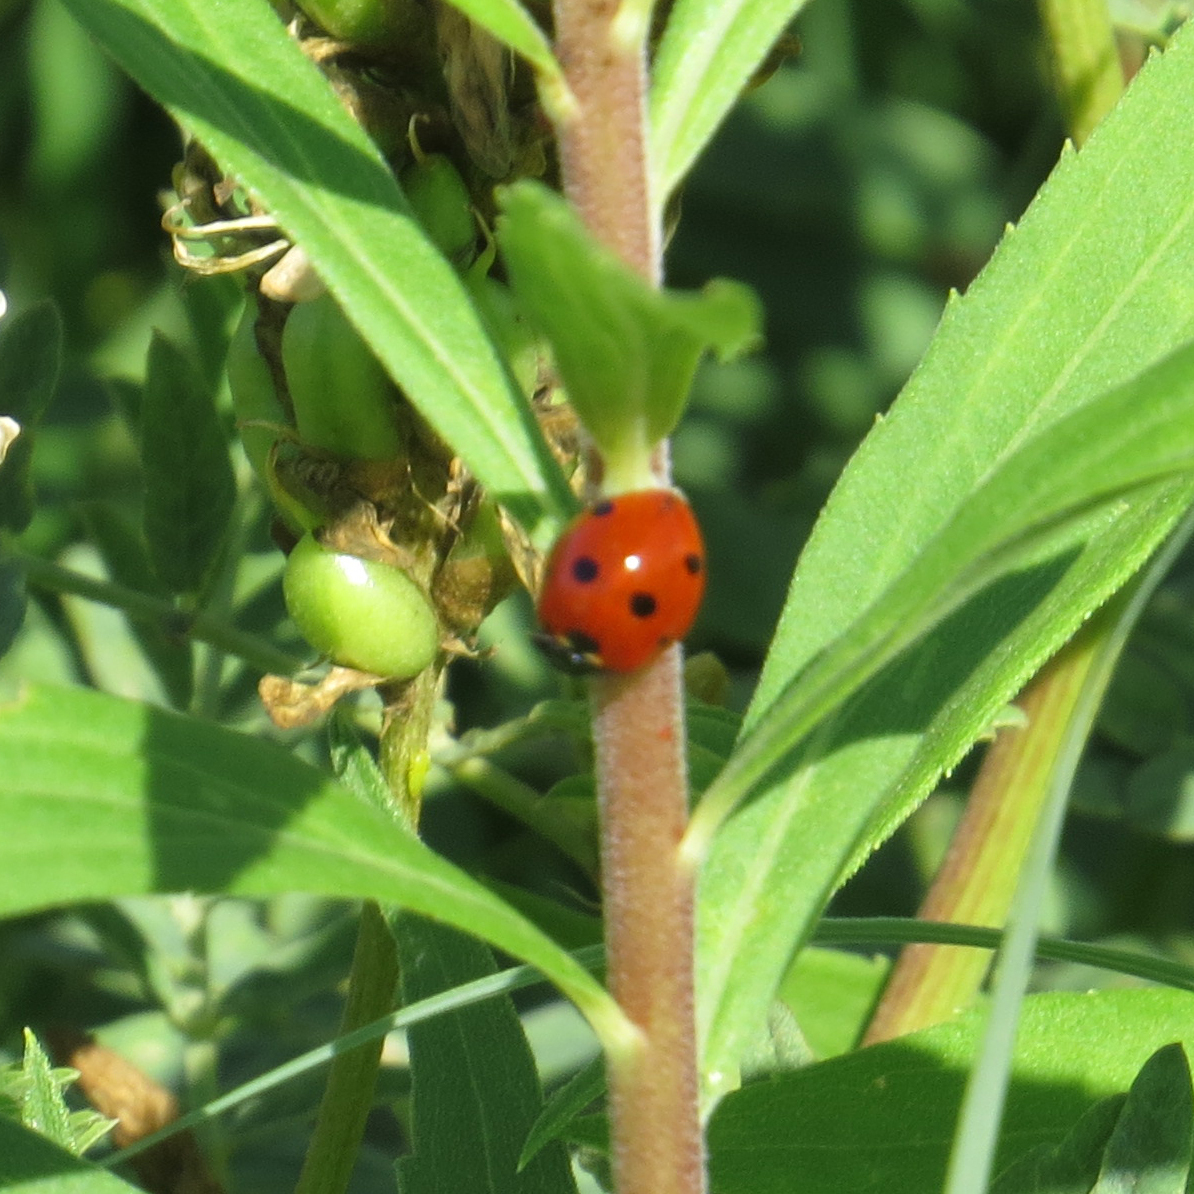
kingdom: Animalia
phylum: Arthropoda
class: Insecta
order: Coleoptera
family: Coccinellidae
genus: Coccinella
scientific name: Coccinella septempunctata
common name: Sevenspotted lady beetle
